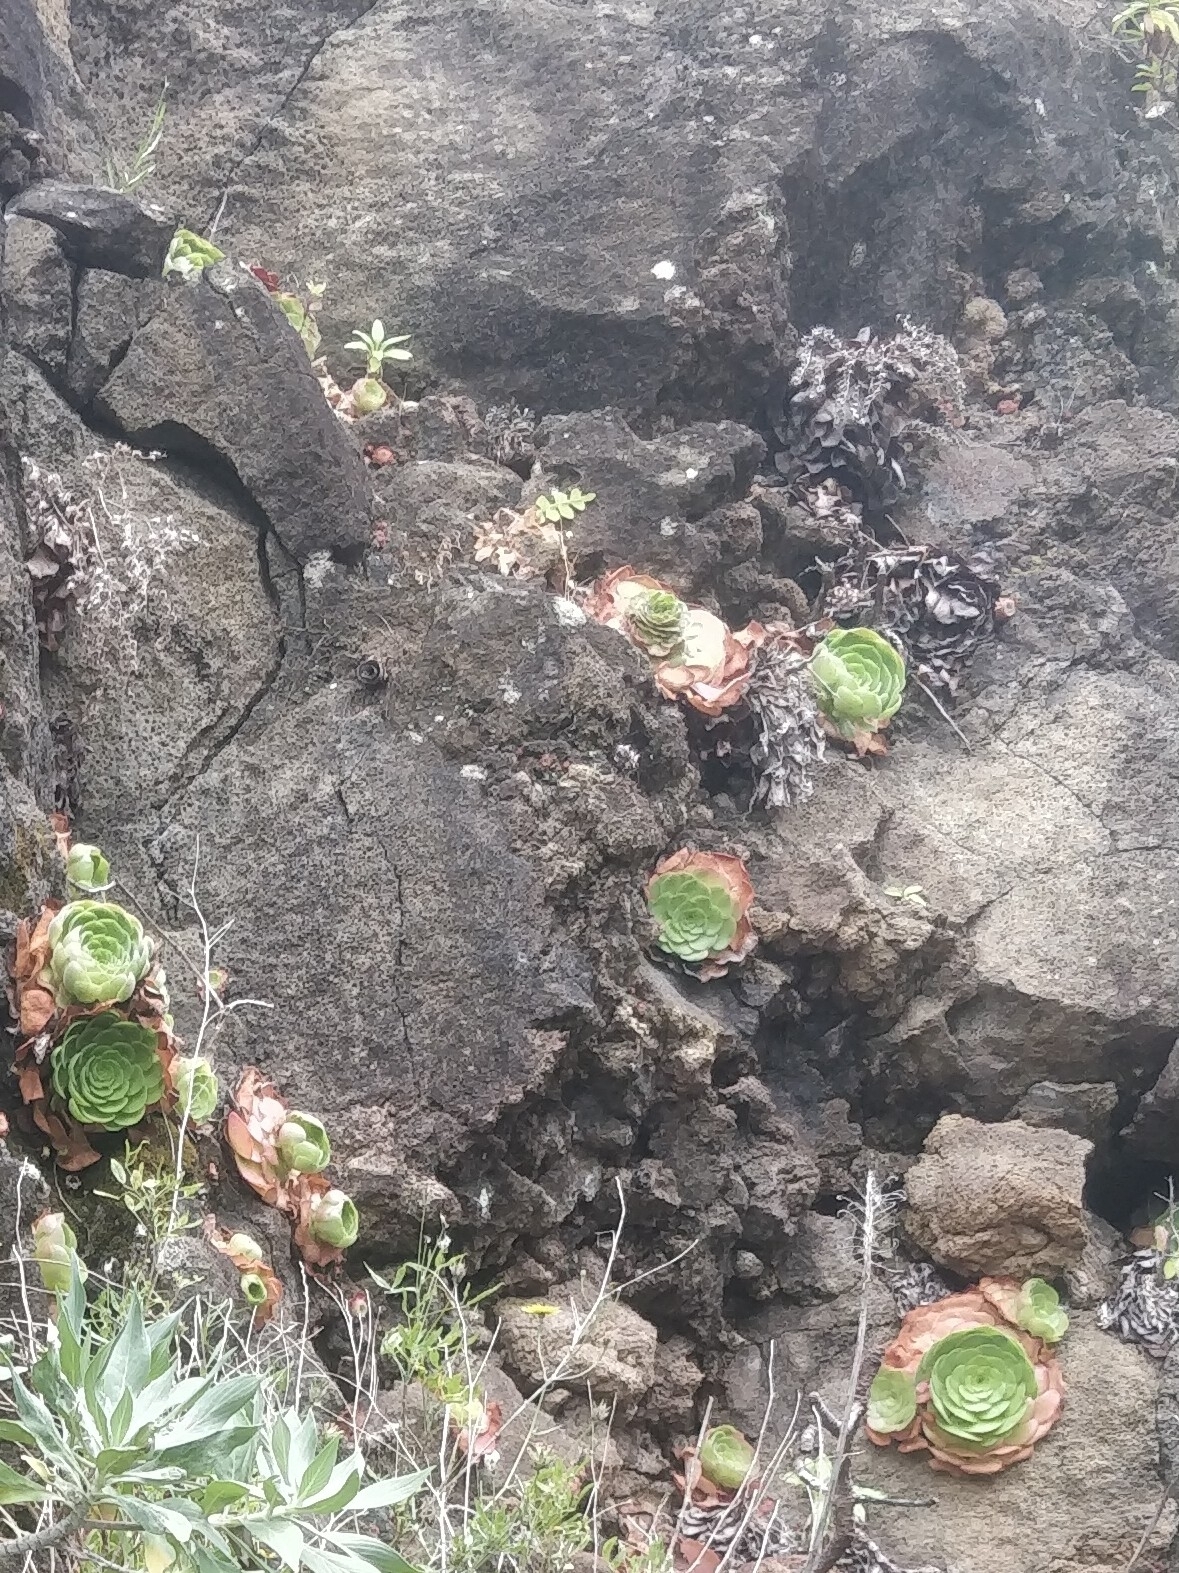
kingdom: Plantae
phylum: Tracheophyta
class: Magnoliopsida
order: Saxifragales
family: Crassulaceae
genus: Aeonium
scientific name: Aeonium glandulosum
